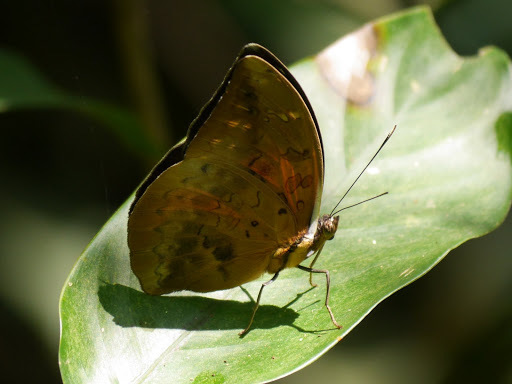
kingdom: Animalia
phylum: Arthropoda
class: Insecta
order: Lepidoptera
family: Nymphalidae
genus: Bebearia
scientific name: Bebearia plistonax
